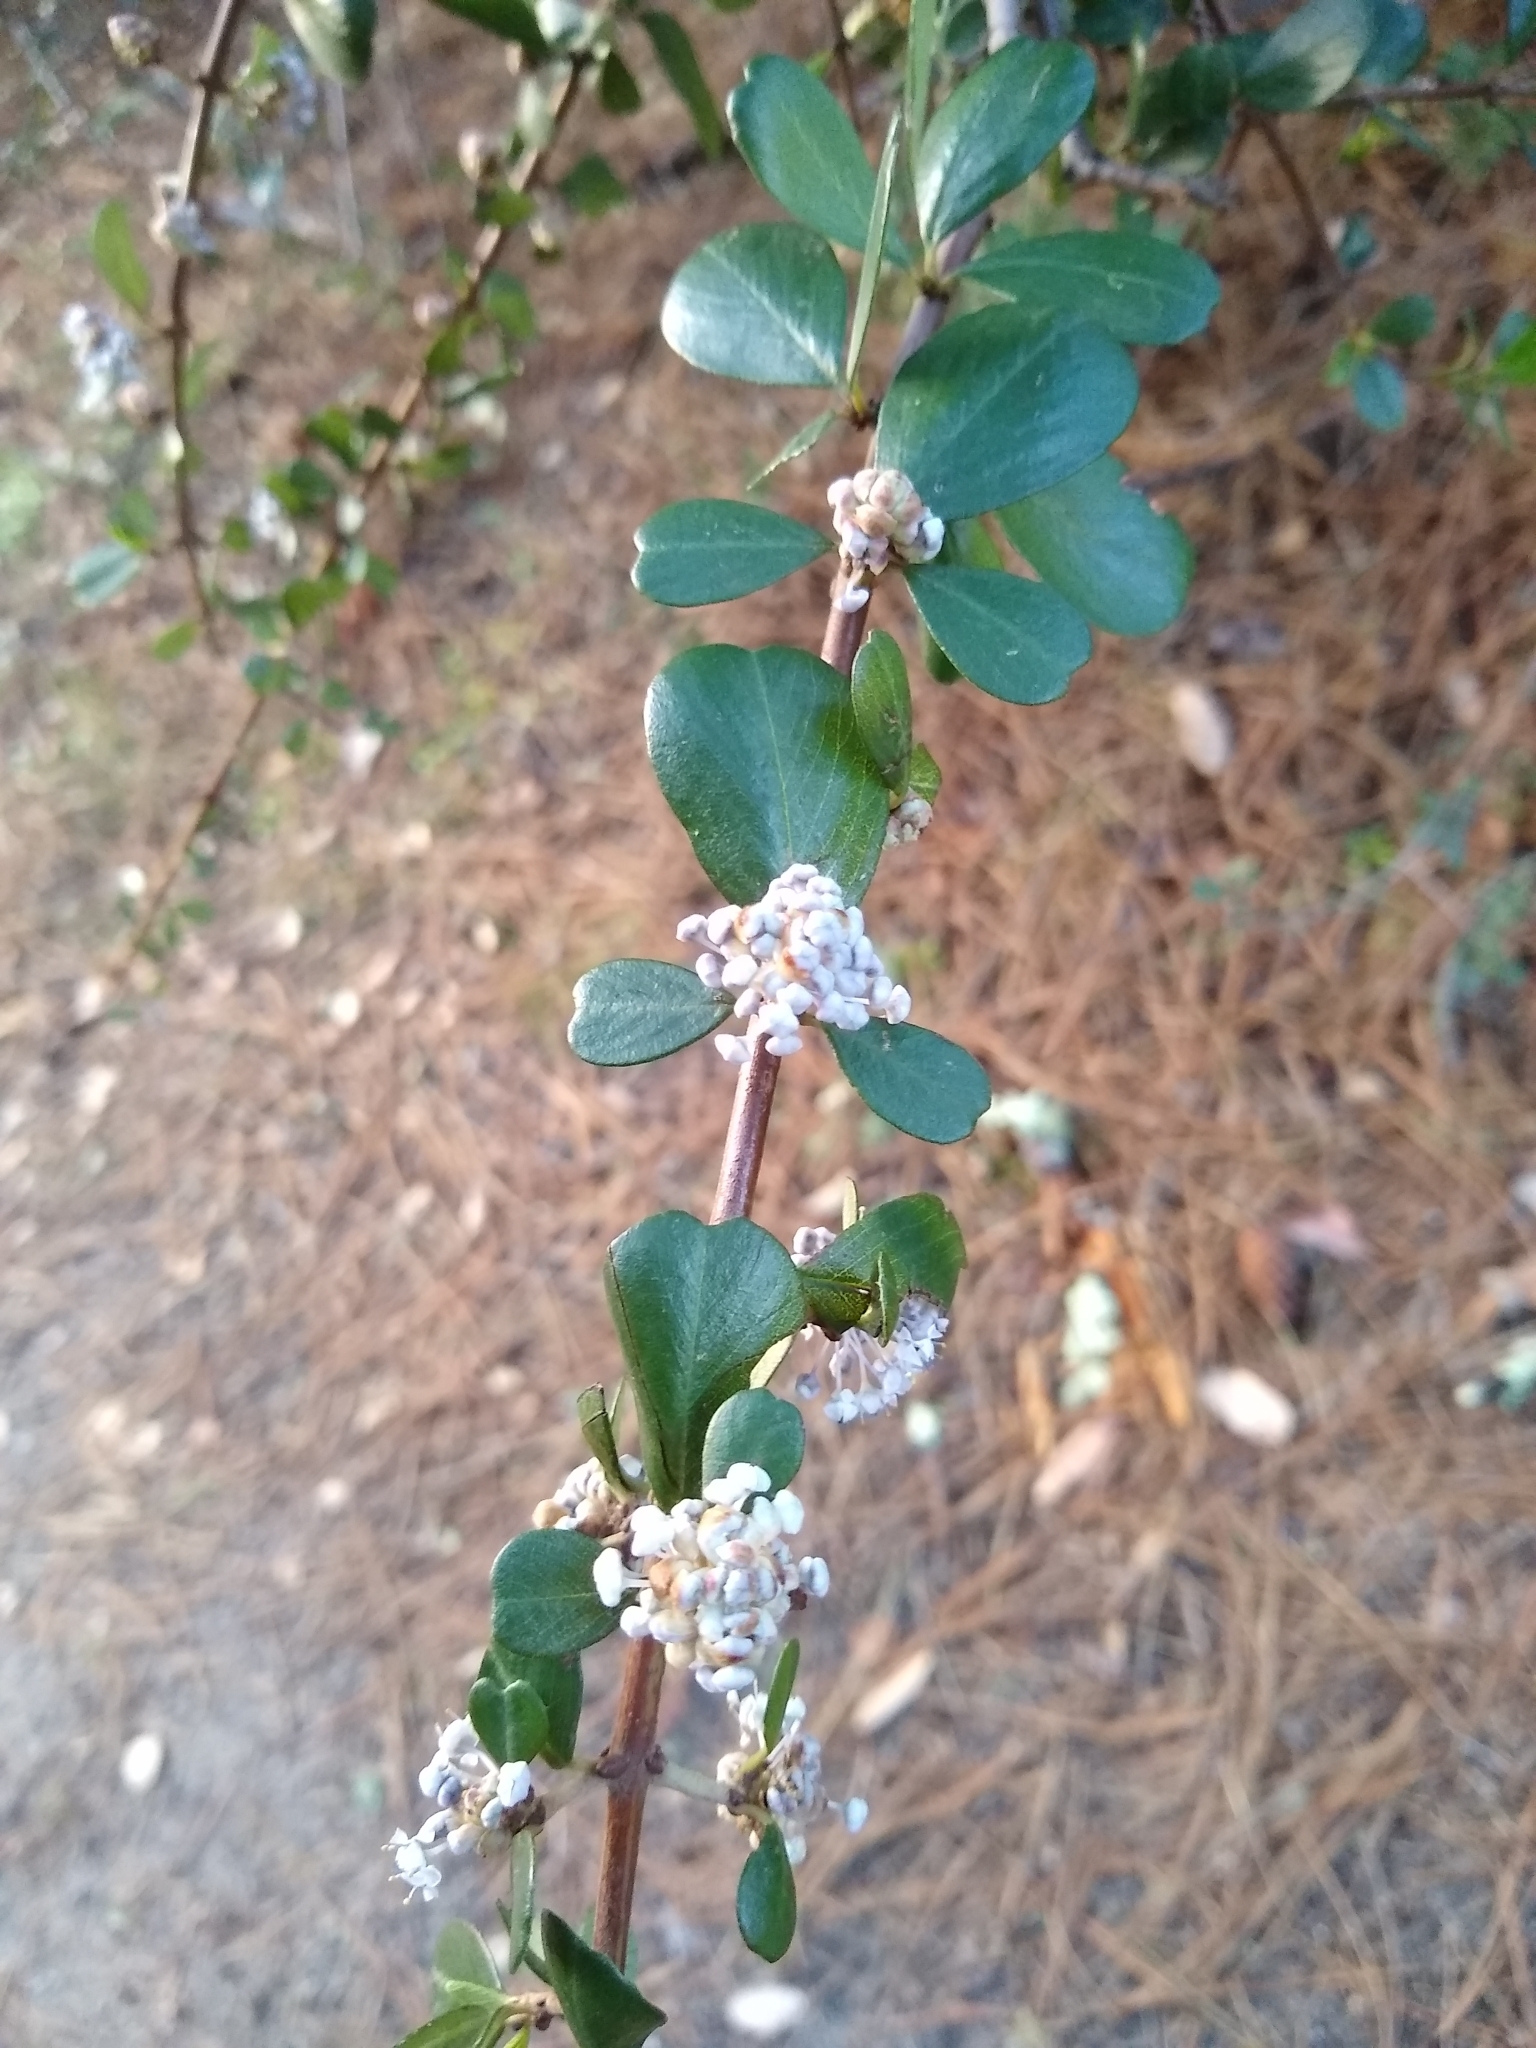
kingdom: Plantae
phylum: Tracheophyta
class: Magnoliopsida
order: Rosales
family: Rhamnaceae
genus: Ceanothus
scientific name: Ceanothus cuneatus
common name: Cuneate ceanothus
